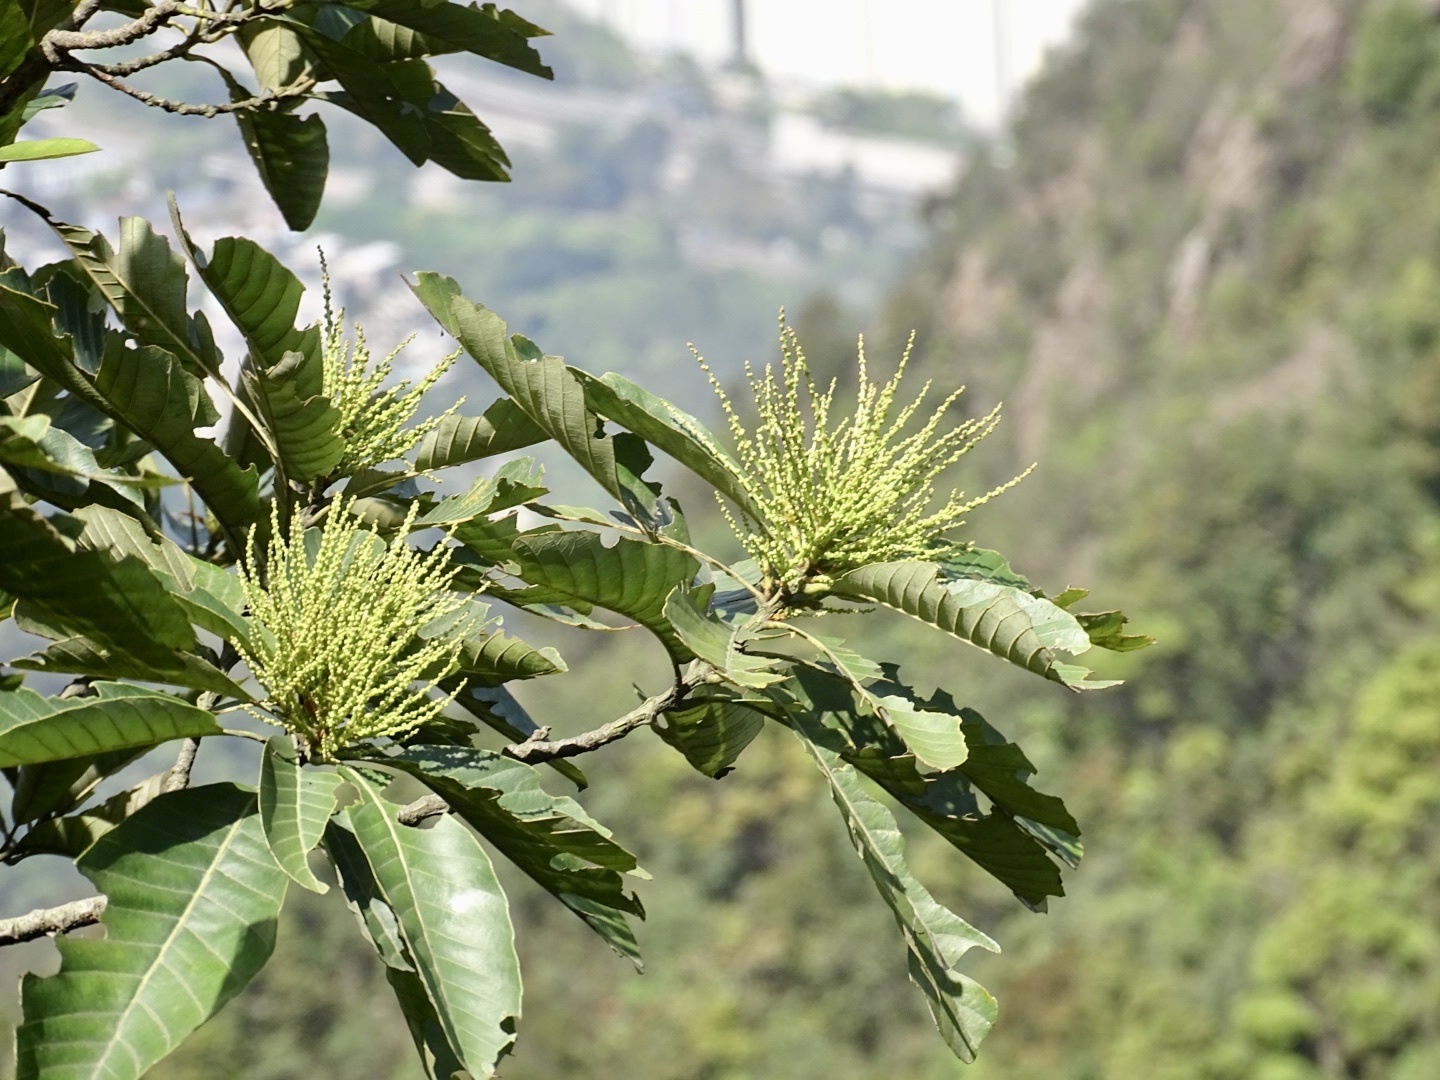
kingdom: Plantae
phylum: Tracheophyta
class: Magnoliopsida
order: Fagales
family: Fagaceae
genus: Castanopsis
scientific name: Castanopsis fissa
